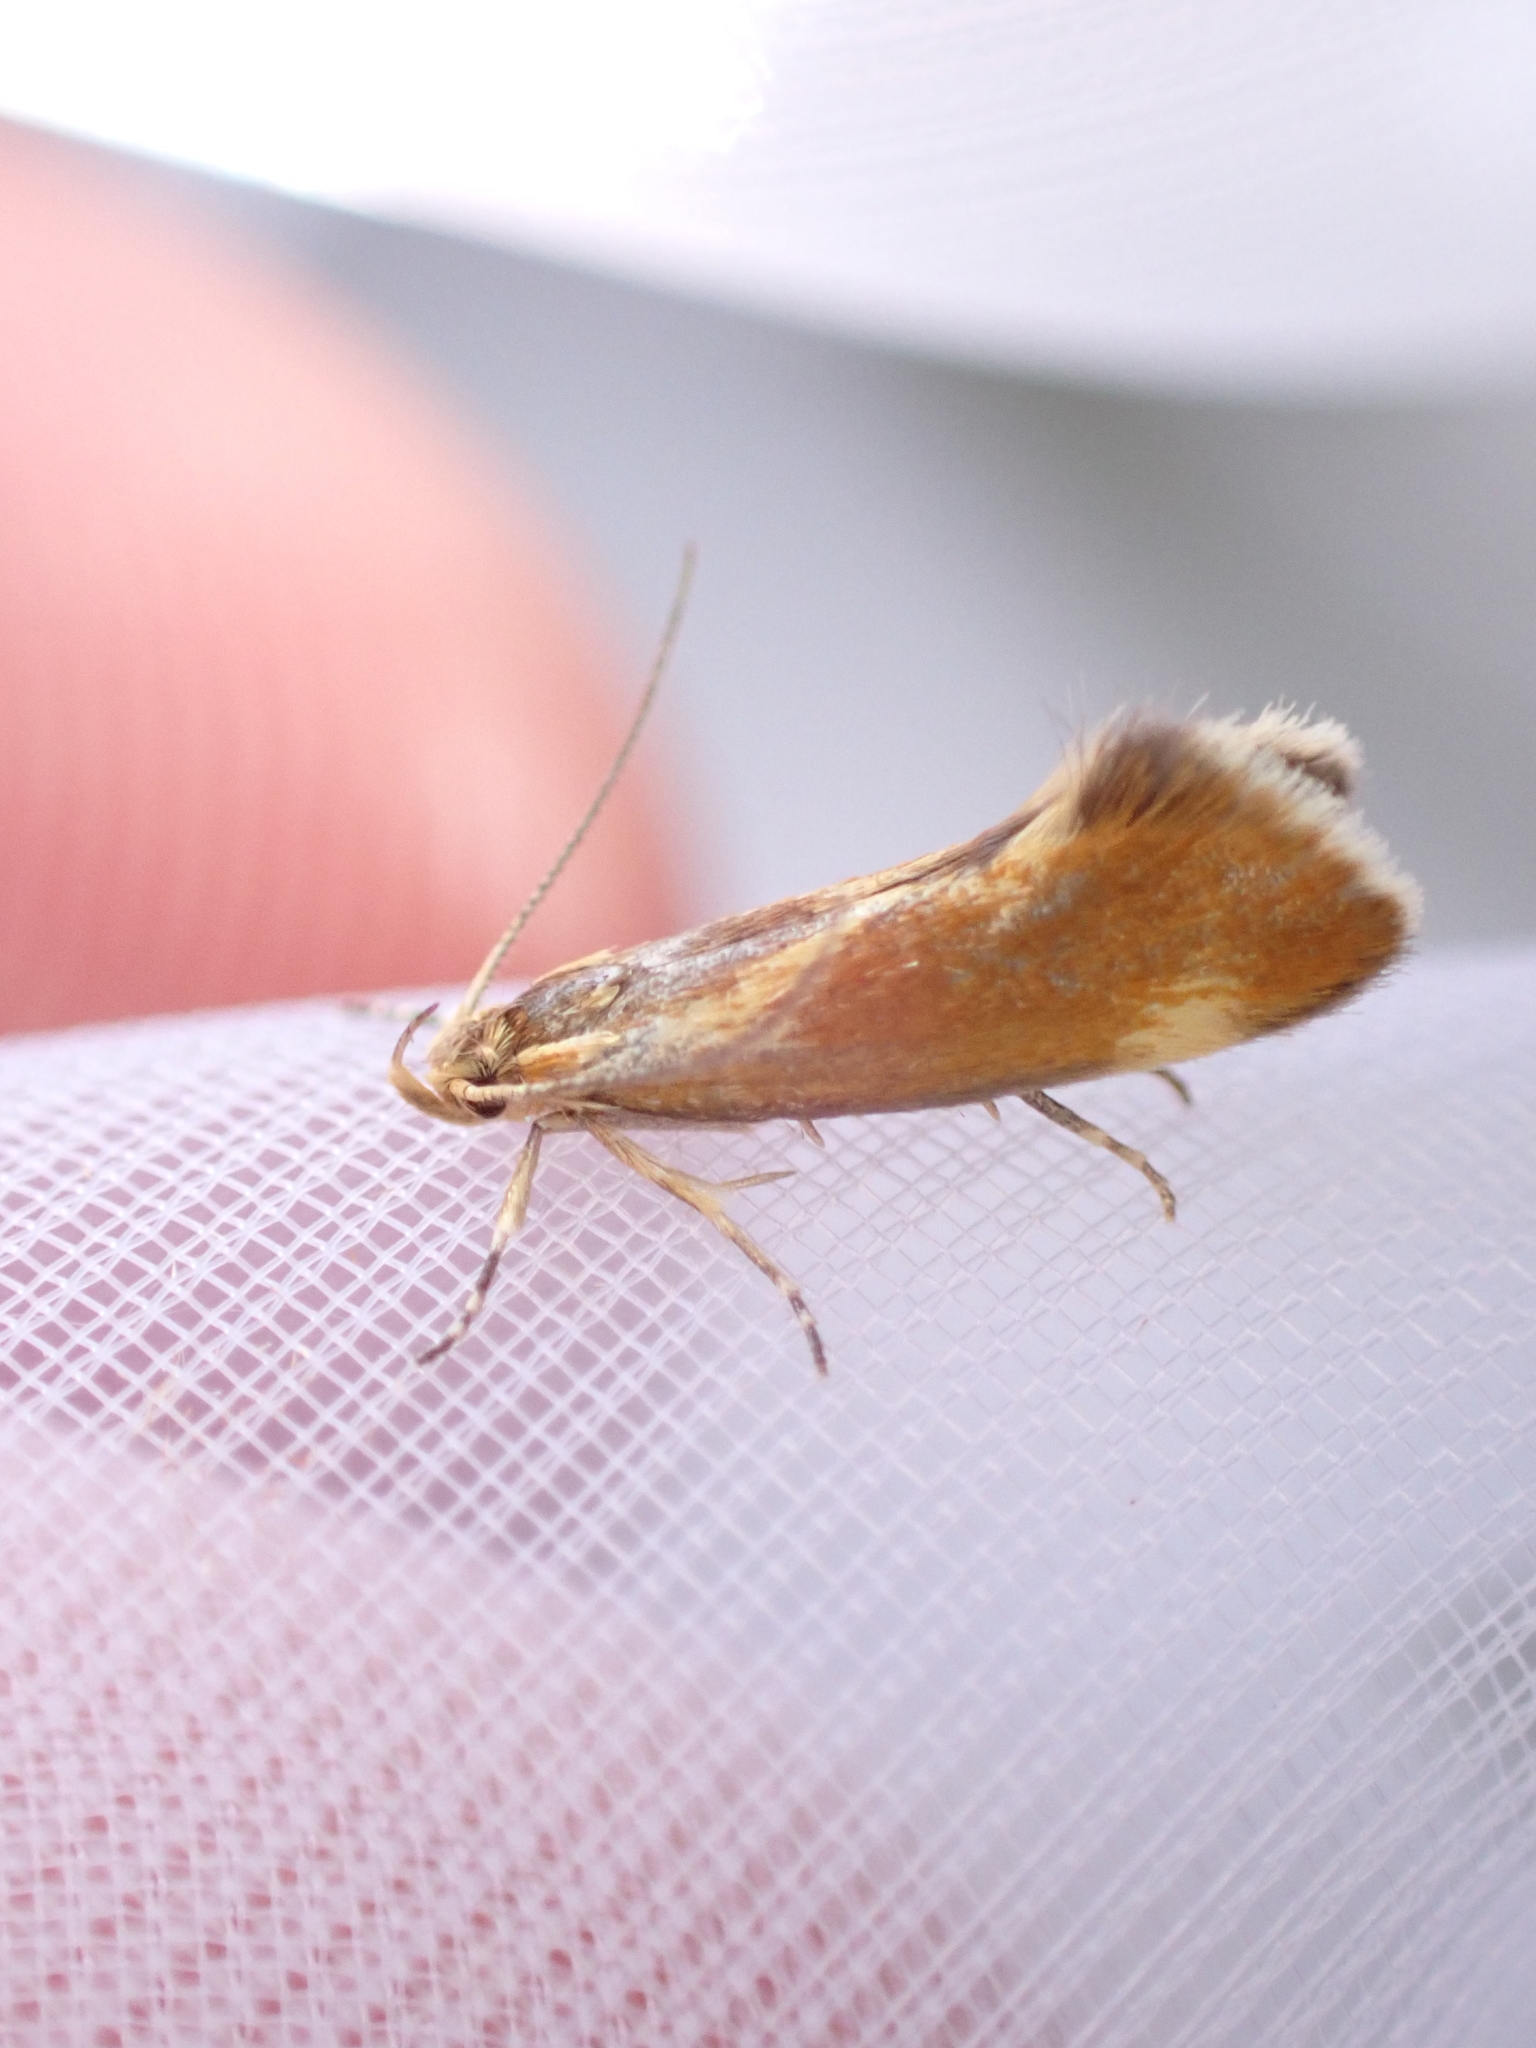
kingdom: Animalia
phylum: Arthropoda
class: Insecta
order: Lepidoptera
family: Oecophoridae
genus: Borkhausenia
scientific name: Borkhausenia italica
